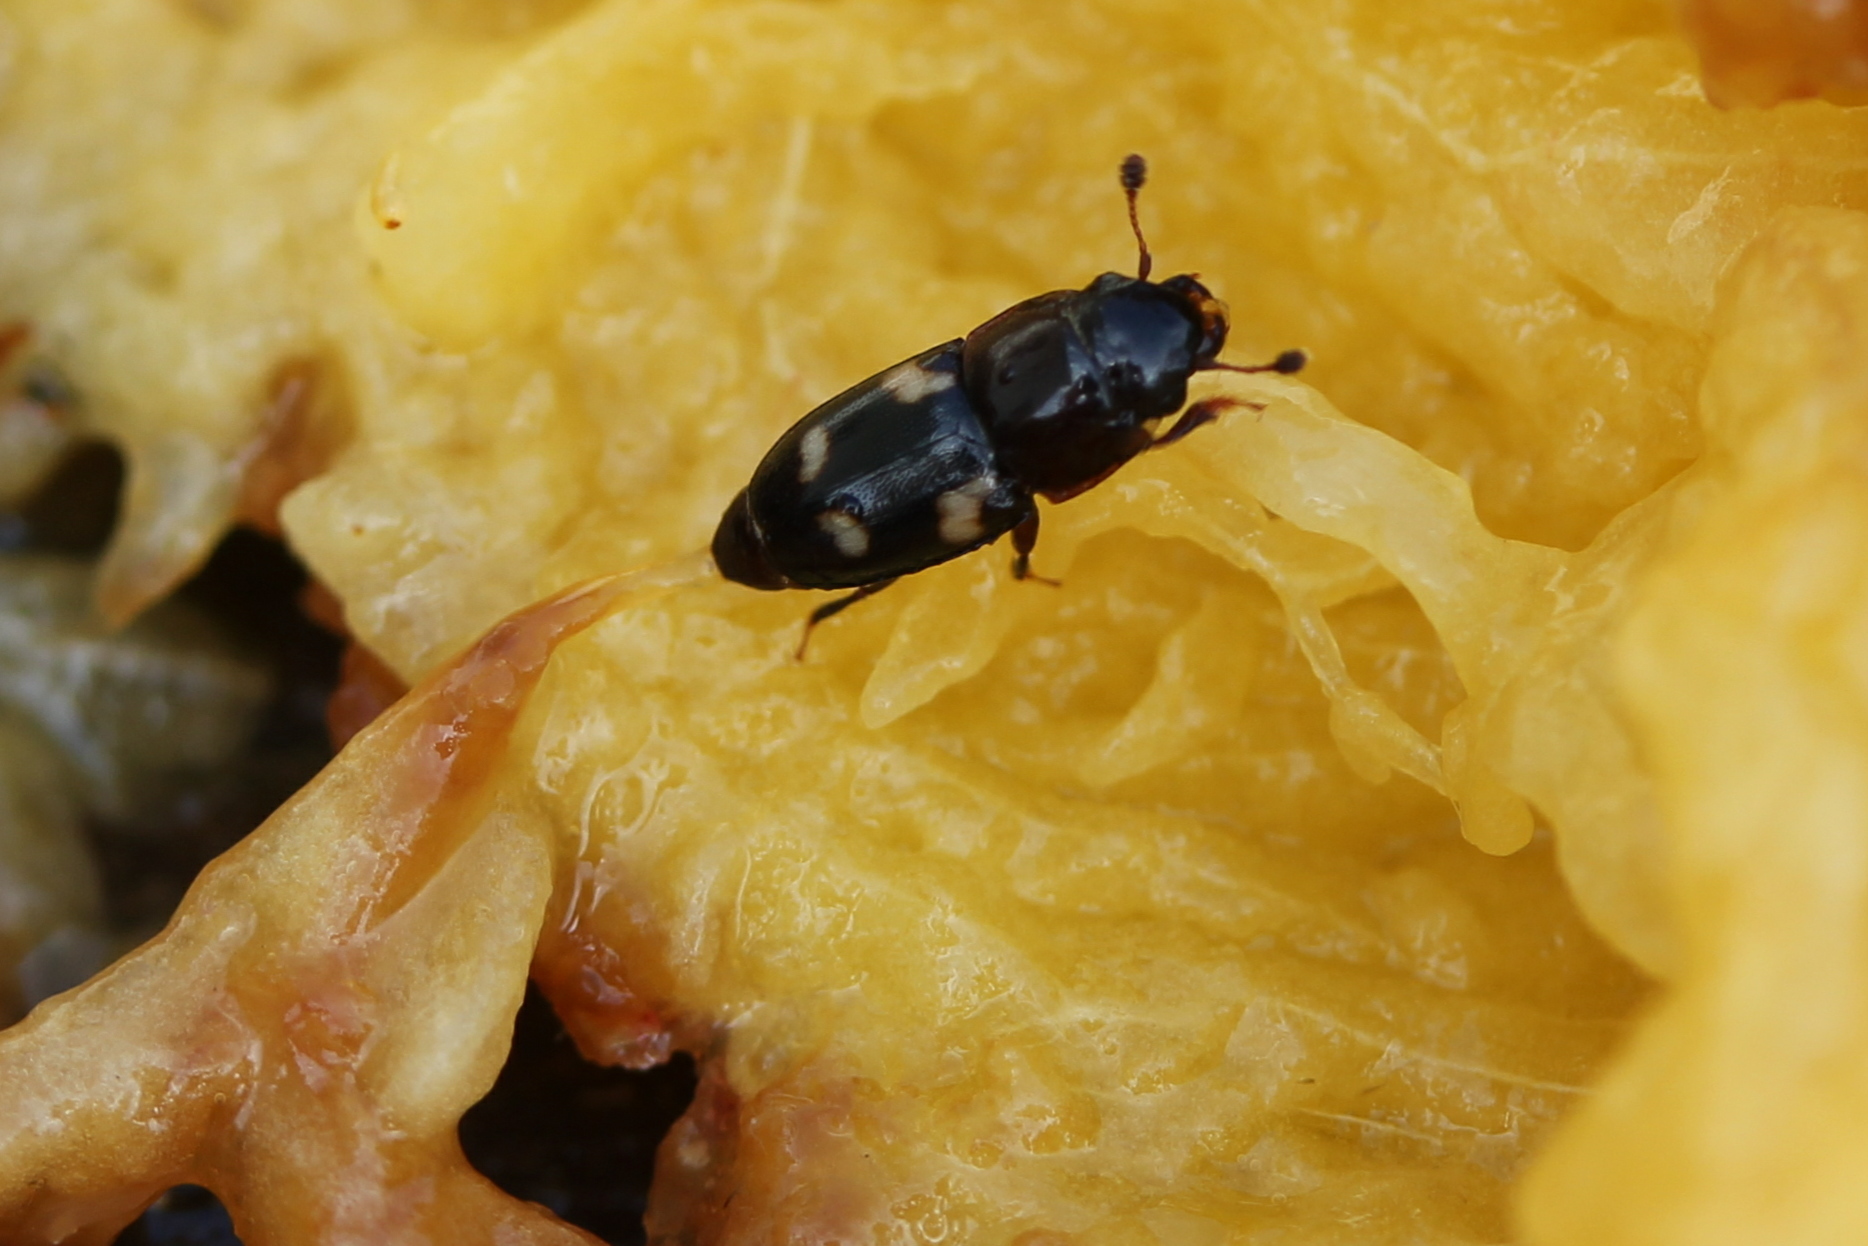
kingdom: Animalia
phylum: Arthropoda
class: Insecta
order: Coleoptera
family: Nitidulidae
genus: Glischrochilus
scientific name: Glischrochilus quadrisignatus
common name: Picnic beetle
